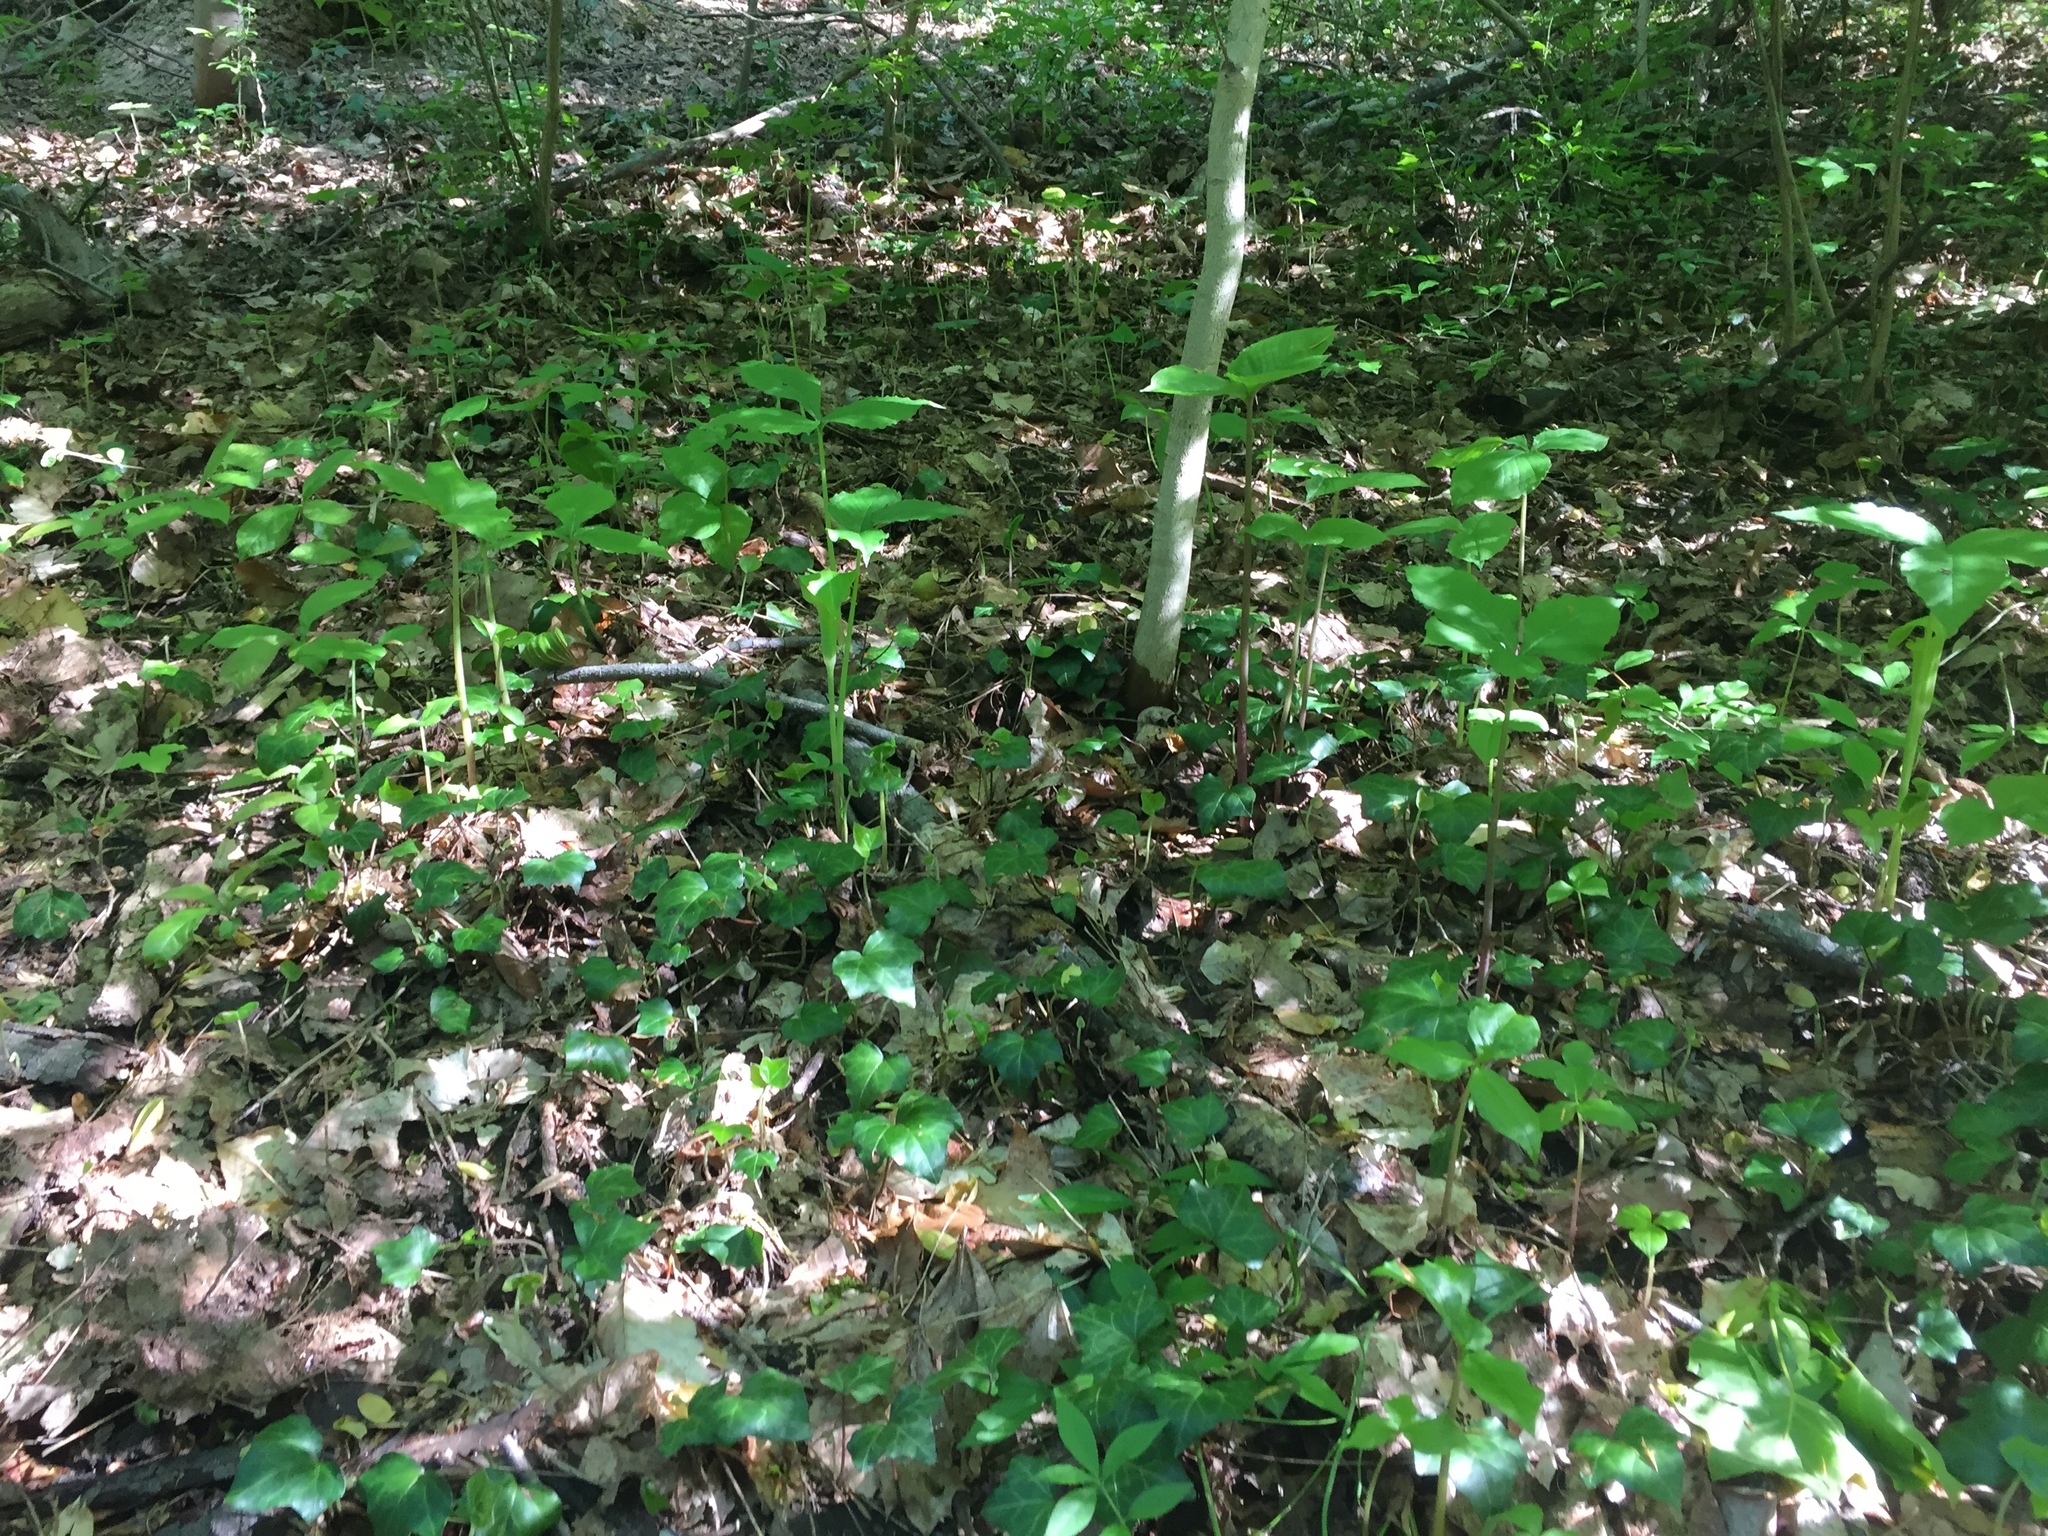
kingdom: Plantae
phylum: Tracheophyta
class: Liliopsida
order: Alismatales
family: Araceae
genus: Arisaema
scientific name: Arisaema triphyllum
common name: Jack-in-the-pulpit
